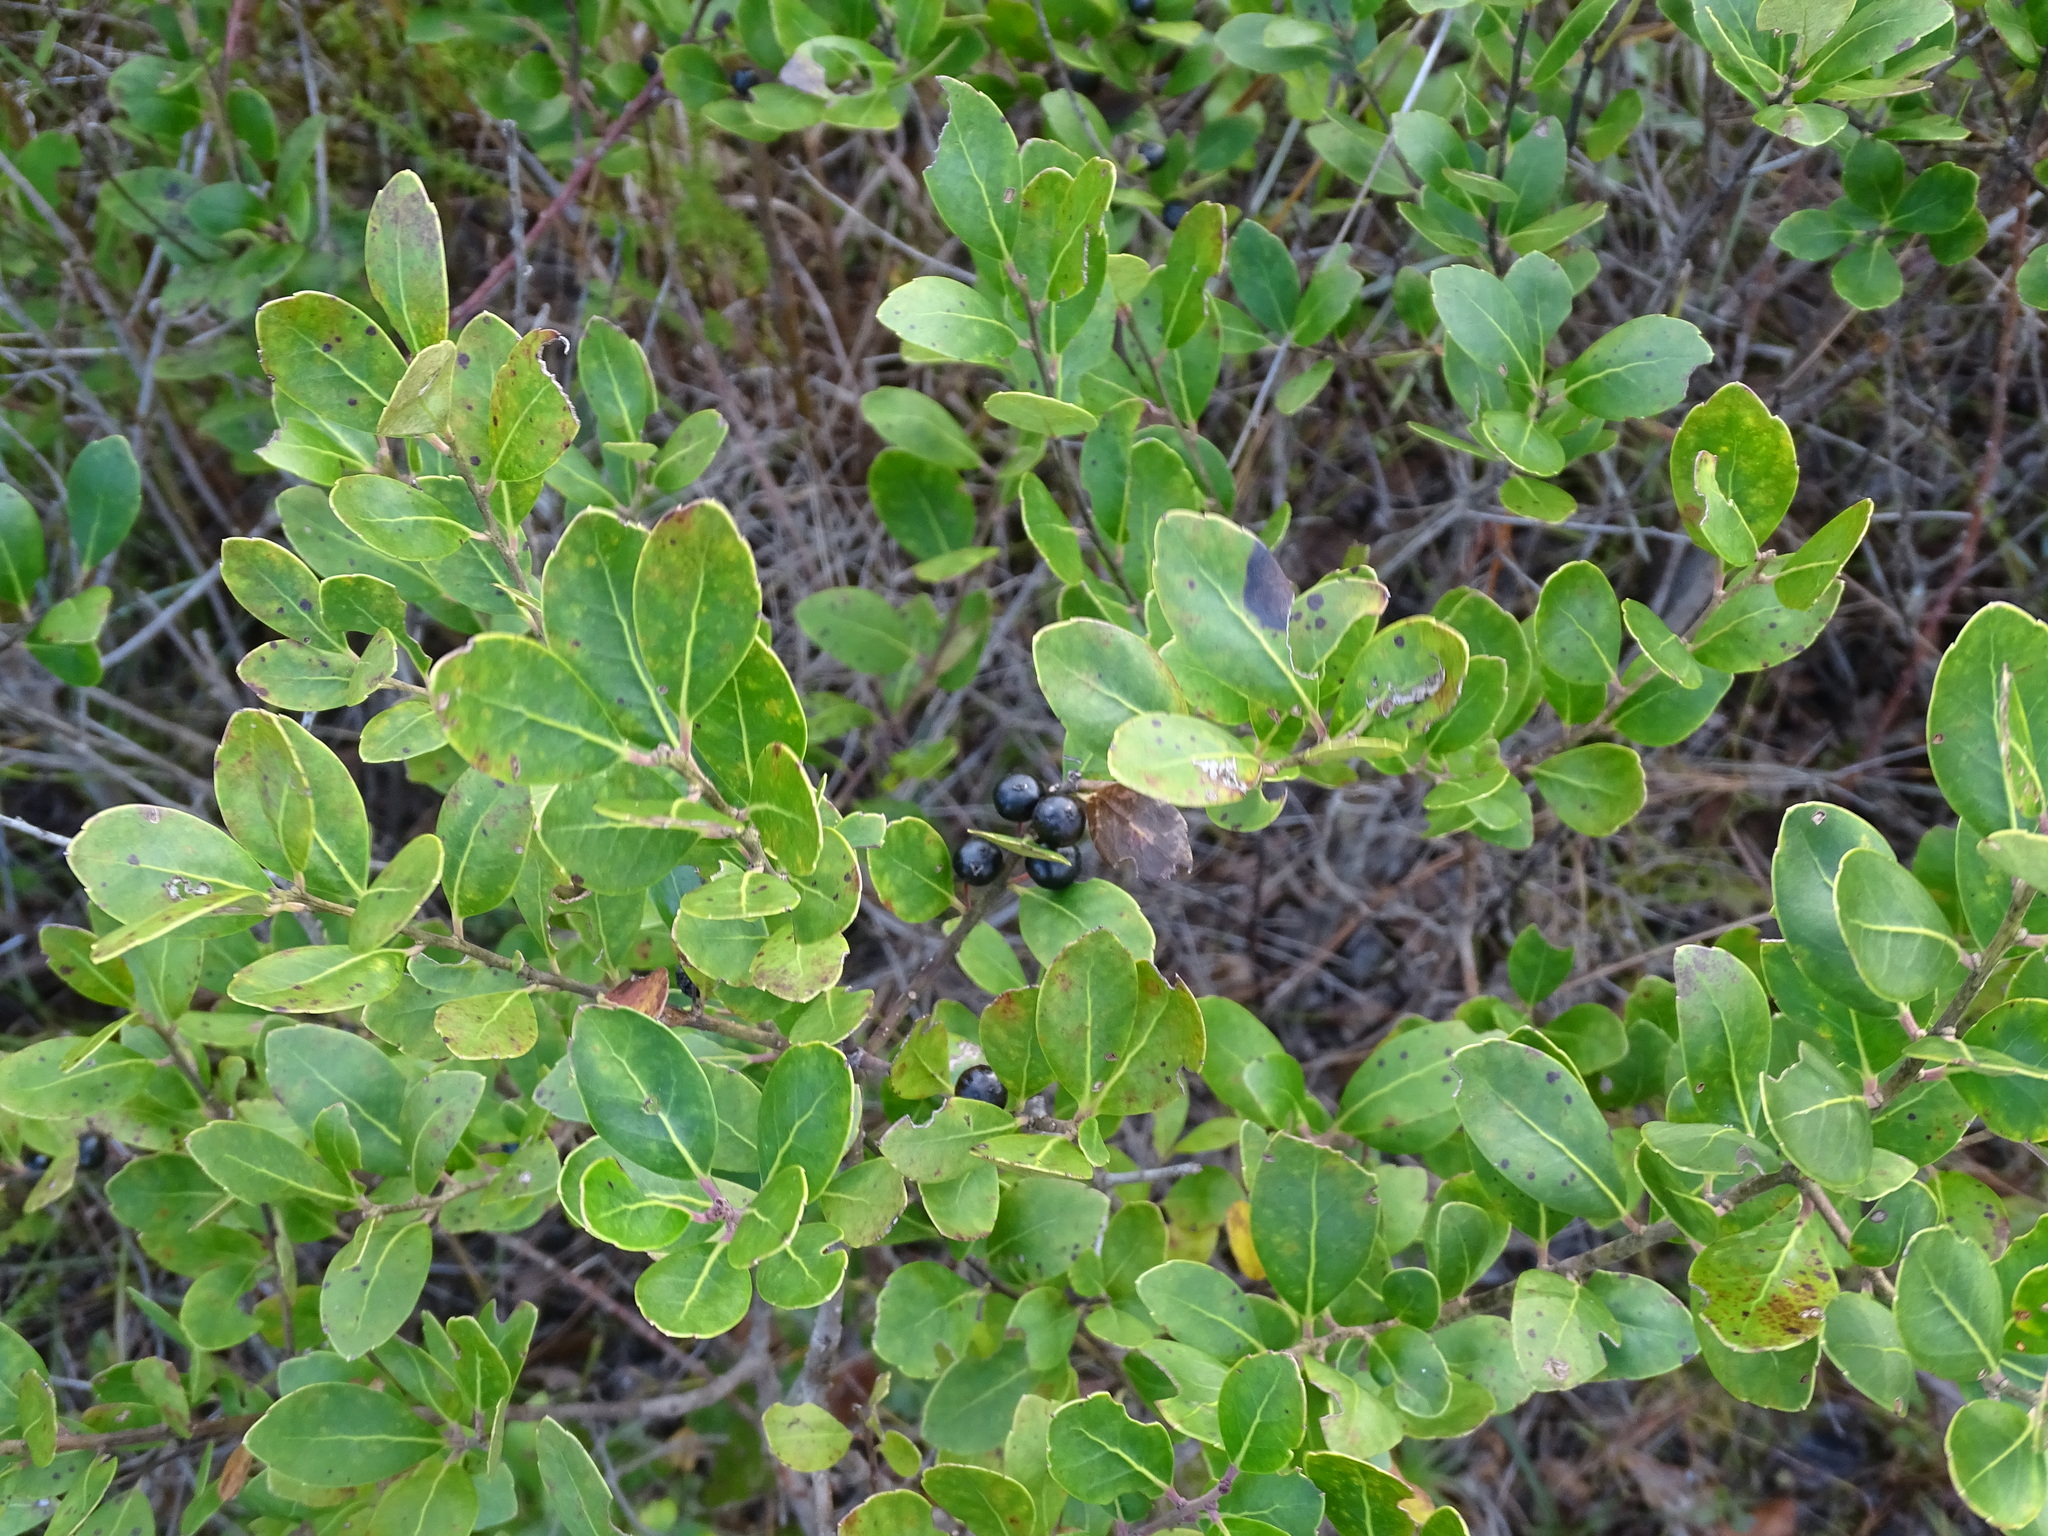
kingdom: Plantae
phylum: Tracheophyta
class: Magnoliopsida
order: Aquifoliales
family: Aquifoliaceae
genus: Ilex
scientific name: Ilex glabra
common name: Bitter gallberry
